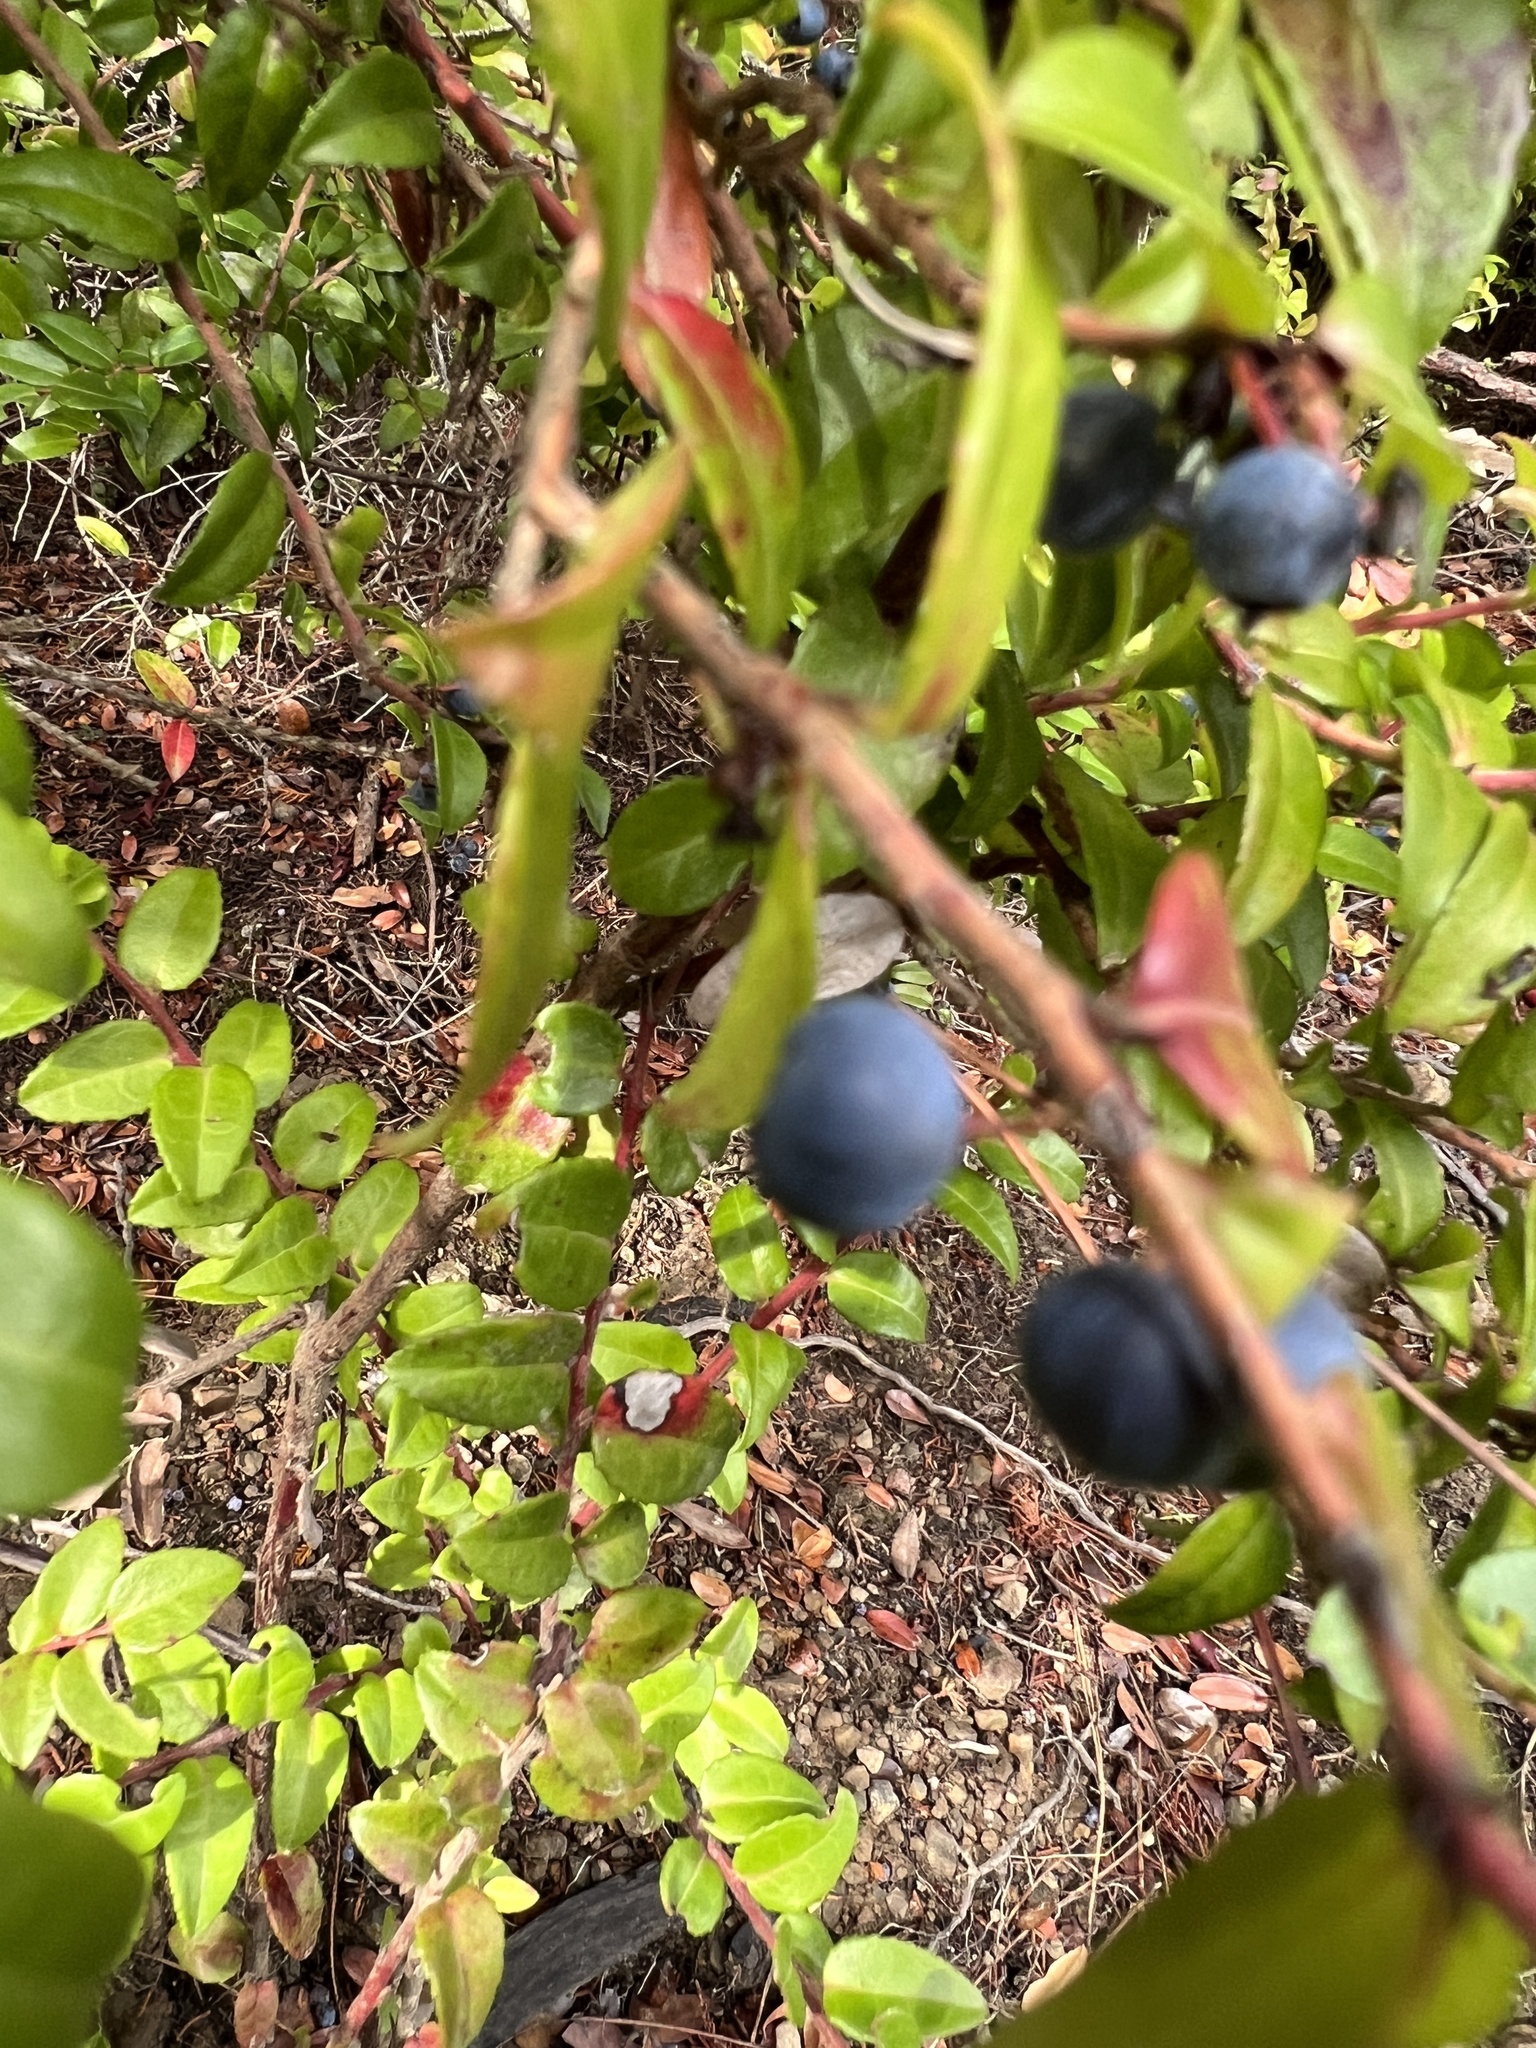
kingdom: Plantae
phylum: Tracheophyta
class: Magnoliopsida
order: Ericales
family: Ericaceae
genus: Vaccinium
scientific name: Vaccinium ovatum
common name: California-huckleberry
